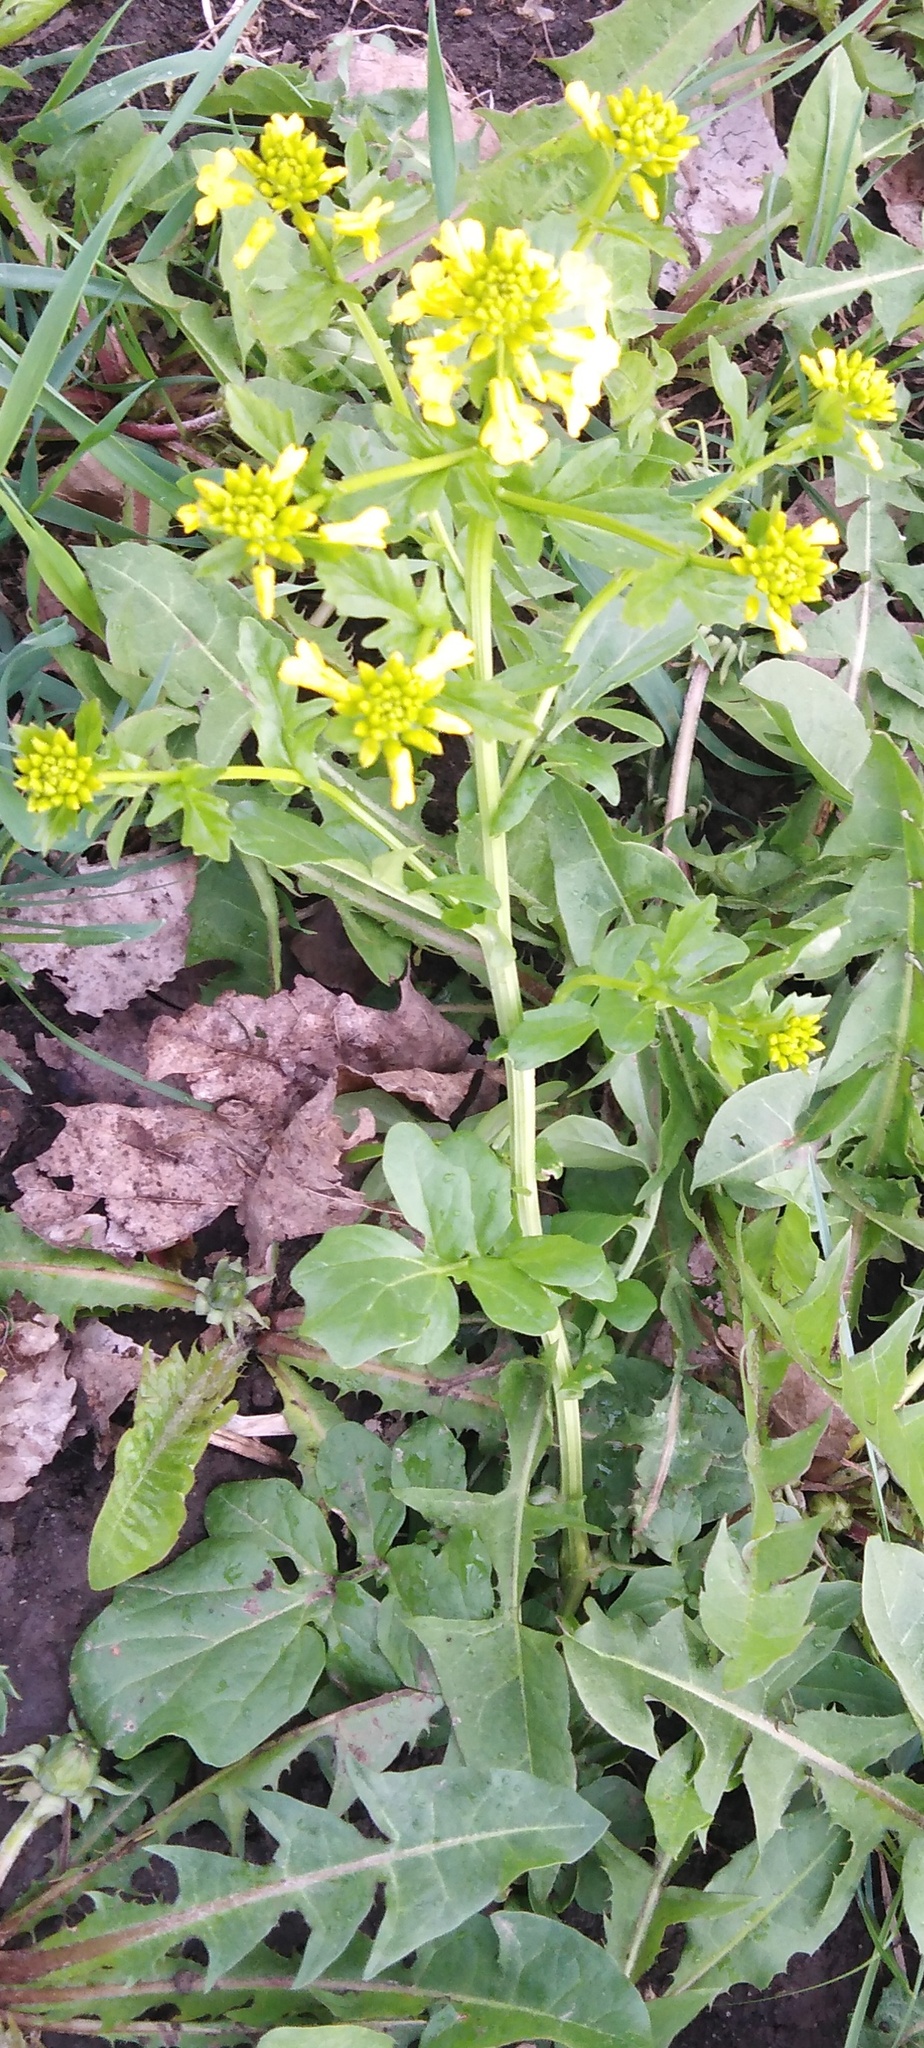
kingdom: Plantae
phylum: Tracheophyta
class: Magnoliopsida
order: Brassicales
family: Brassicaceae
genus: Barbarea
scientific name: Barbarea vulgaris
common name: Cressy-greens
